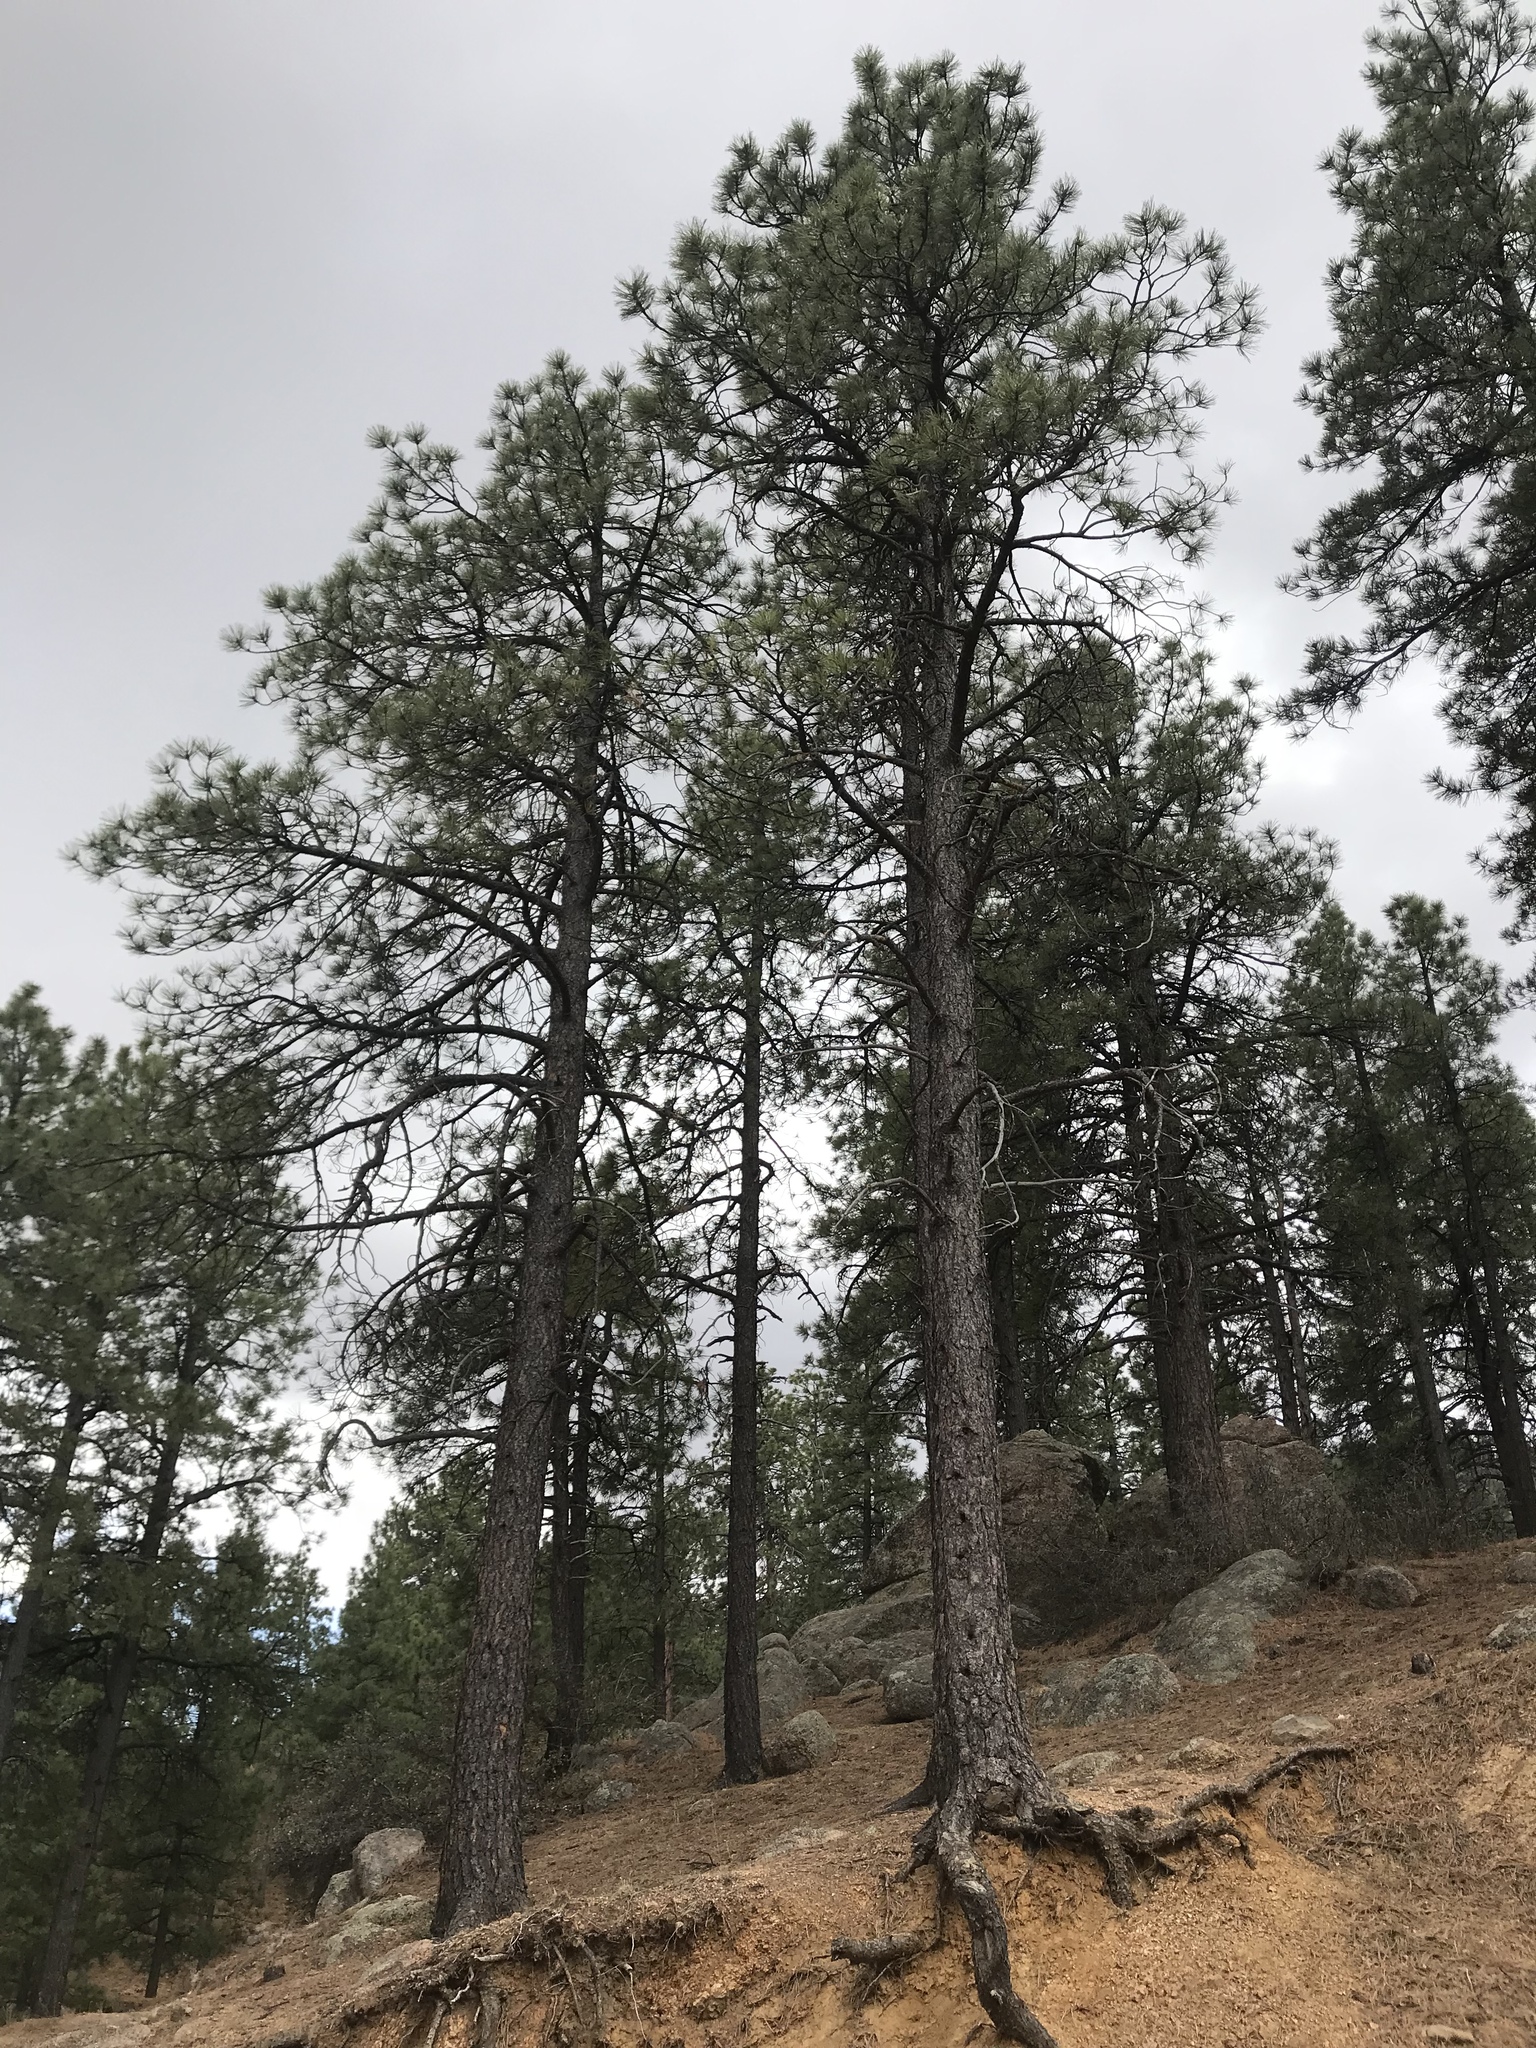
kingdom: Plantae
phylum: Tracheophyta
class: Pinopsida
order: Pinales
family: Pinaceae
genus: Pinus
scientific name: Pinus ponderosa
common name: Western yellow-pine
